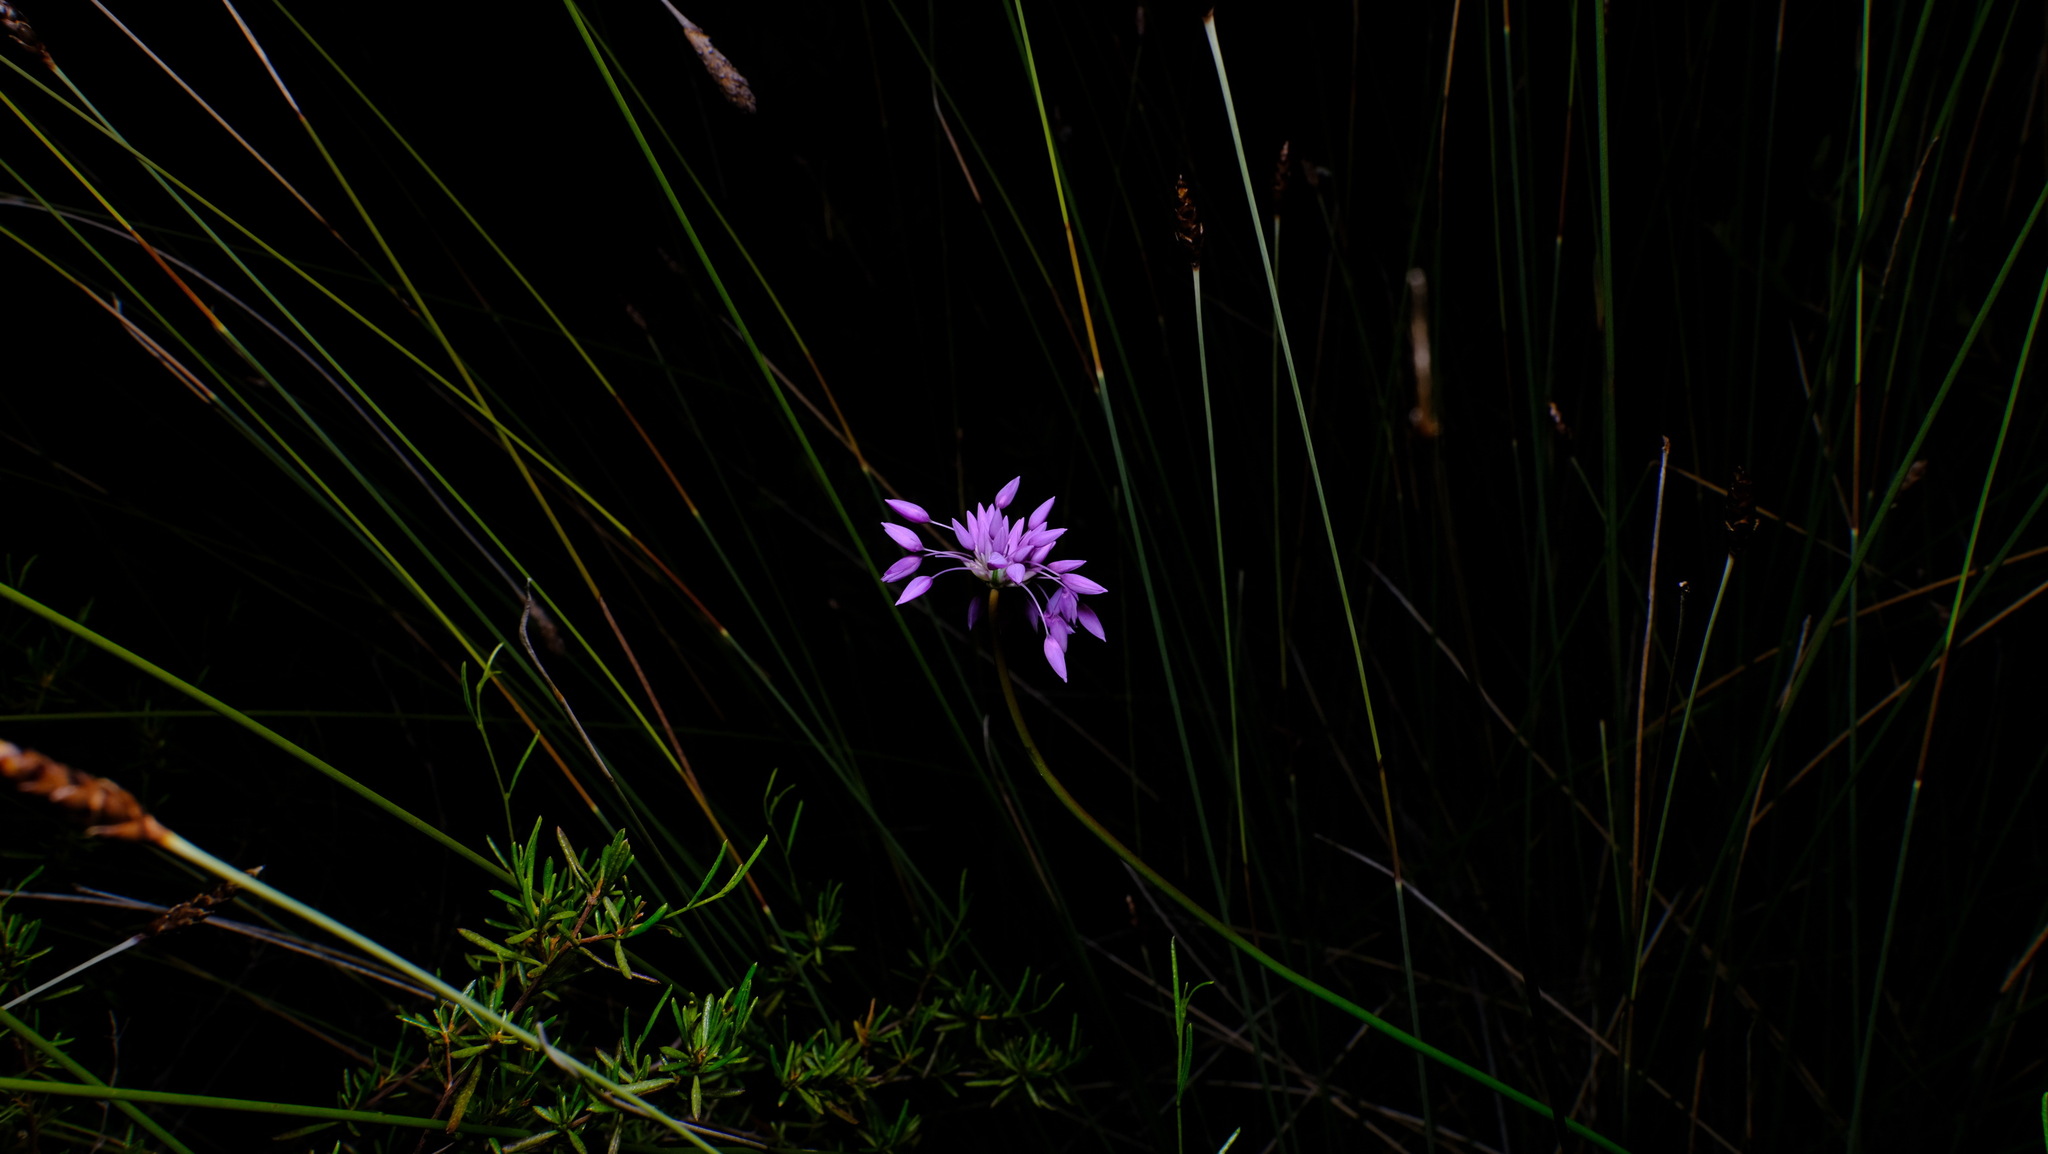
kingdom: Plantae
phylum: Tracheophyta
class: Liliopsida
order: Asparagales
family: Asparagaceae
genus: Sowerbaea
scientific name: Sowerbaea laxiflora
